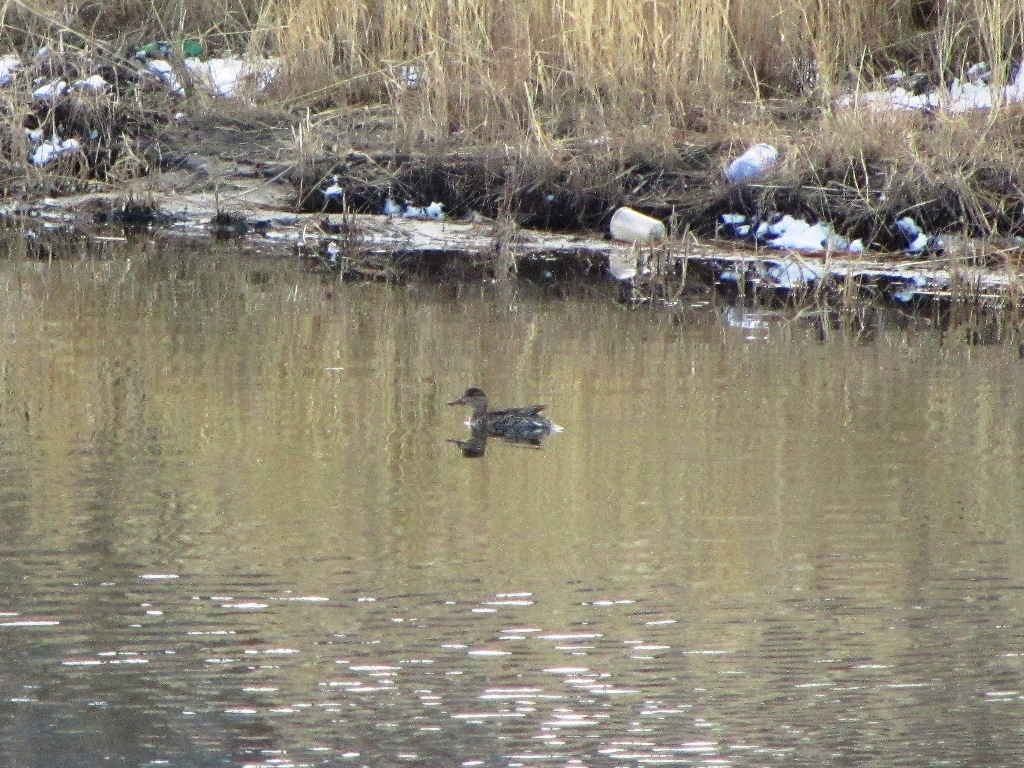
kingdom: Animalia
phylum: Chordata
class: Aves
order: Anseriformes
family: Anatidae
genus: Anas
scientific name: Anas crecca
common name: Eurasian teal
